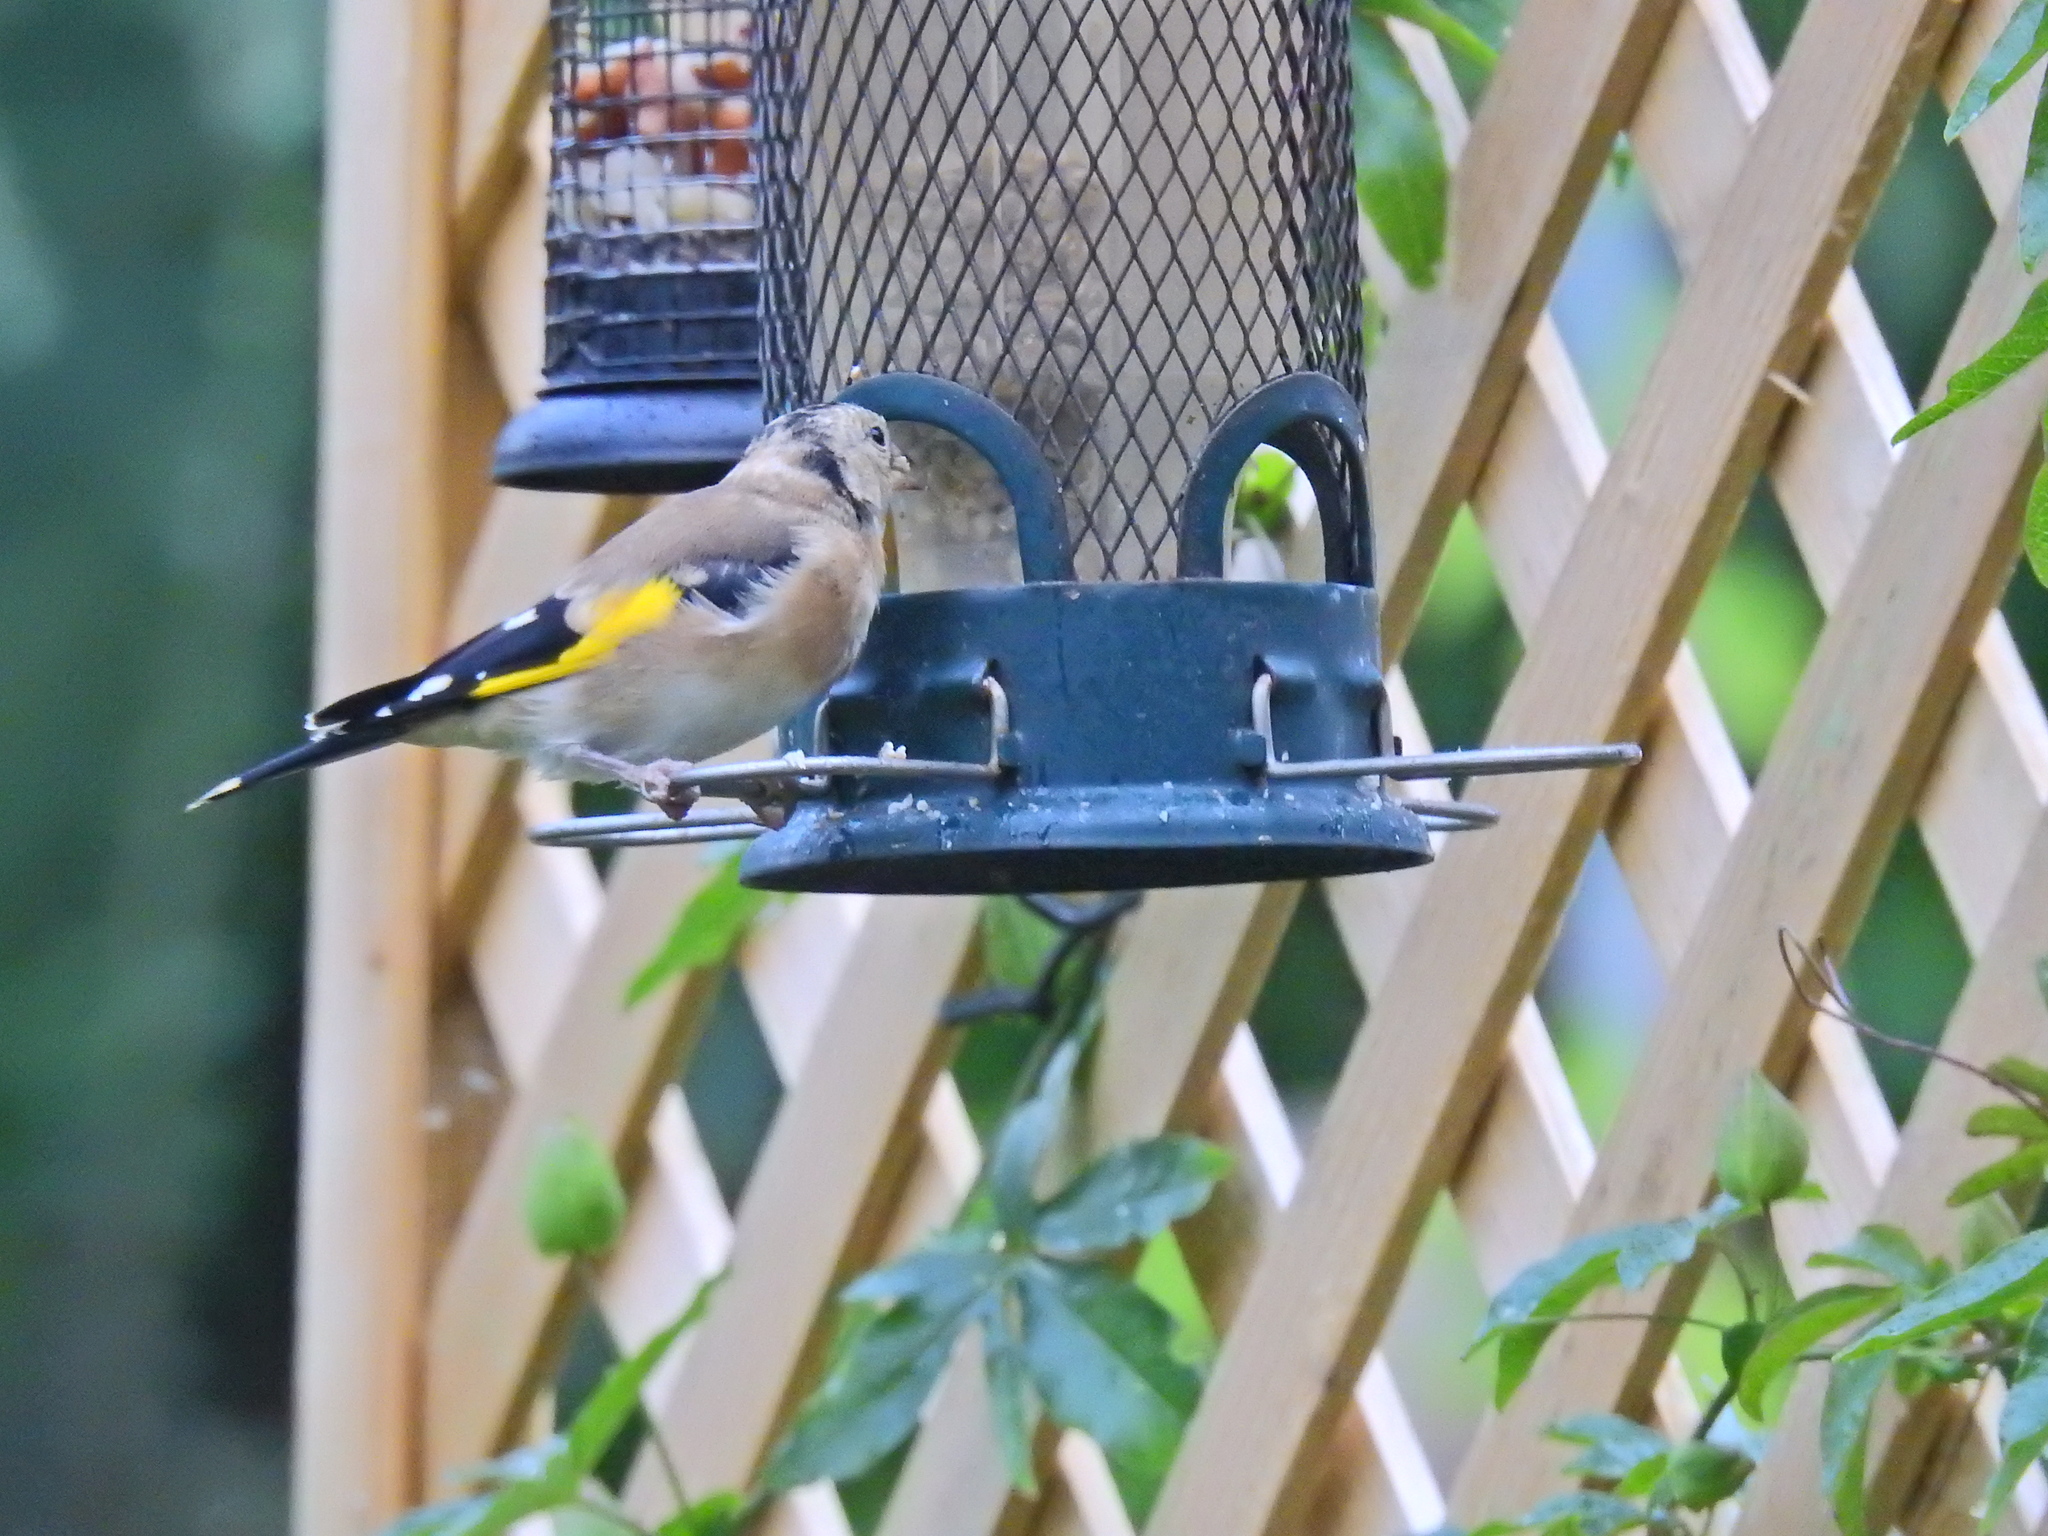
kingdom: Animalia
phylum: Chordata
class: Aves
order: Passeriformes
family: Fringillidae
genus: Carduelis
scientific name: Carduelis carduelis
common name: European goldfinch
